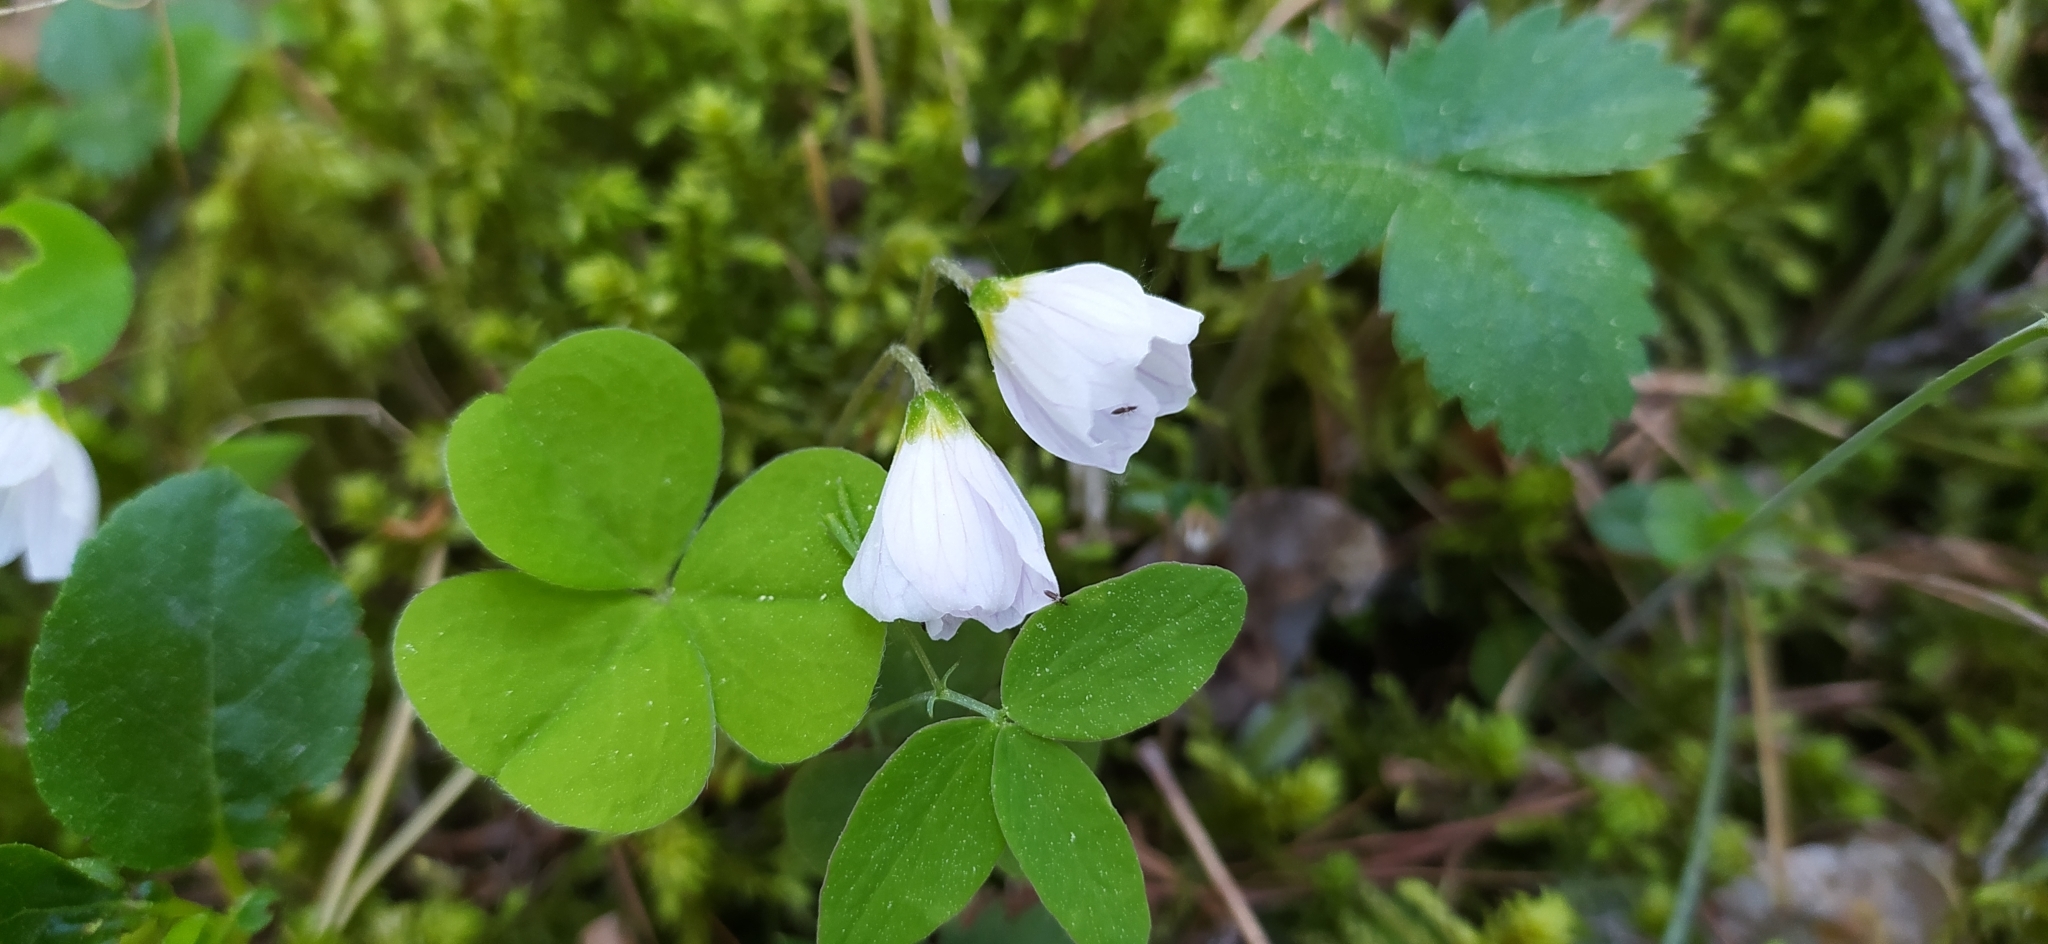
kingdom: Plantae
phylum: Tracheophyta
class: Magnoliopsida
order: Oxalidales
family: Oxalidaceae
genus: Oxalis
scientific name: Oxalis acetosella
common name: Wood-sorrel
